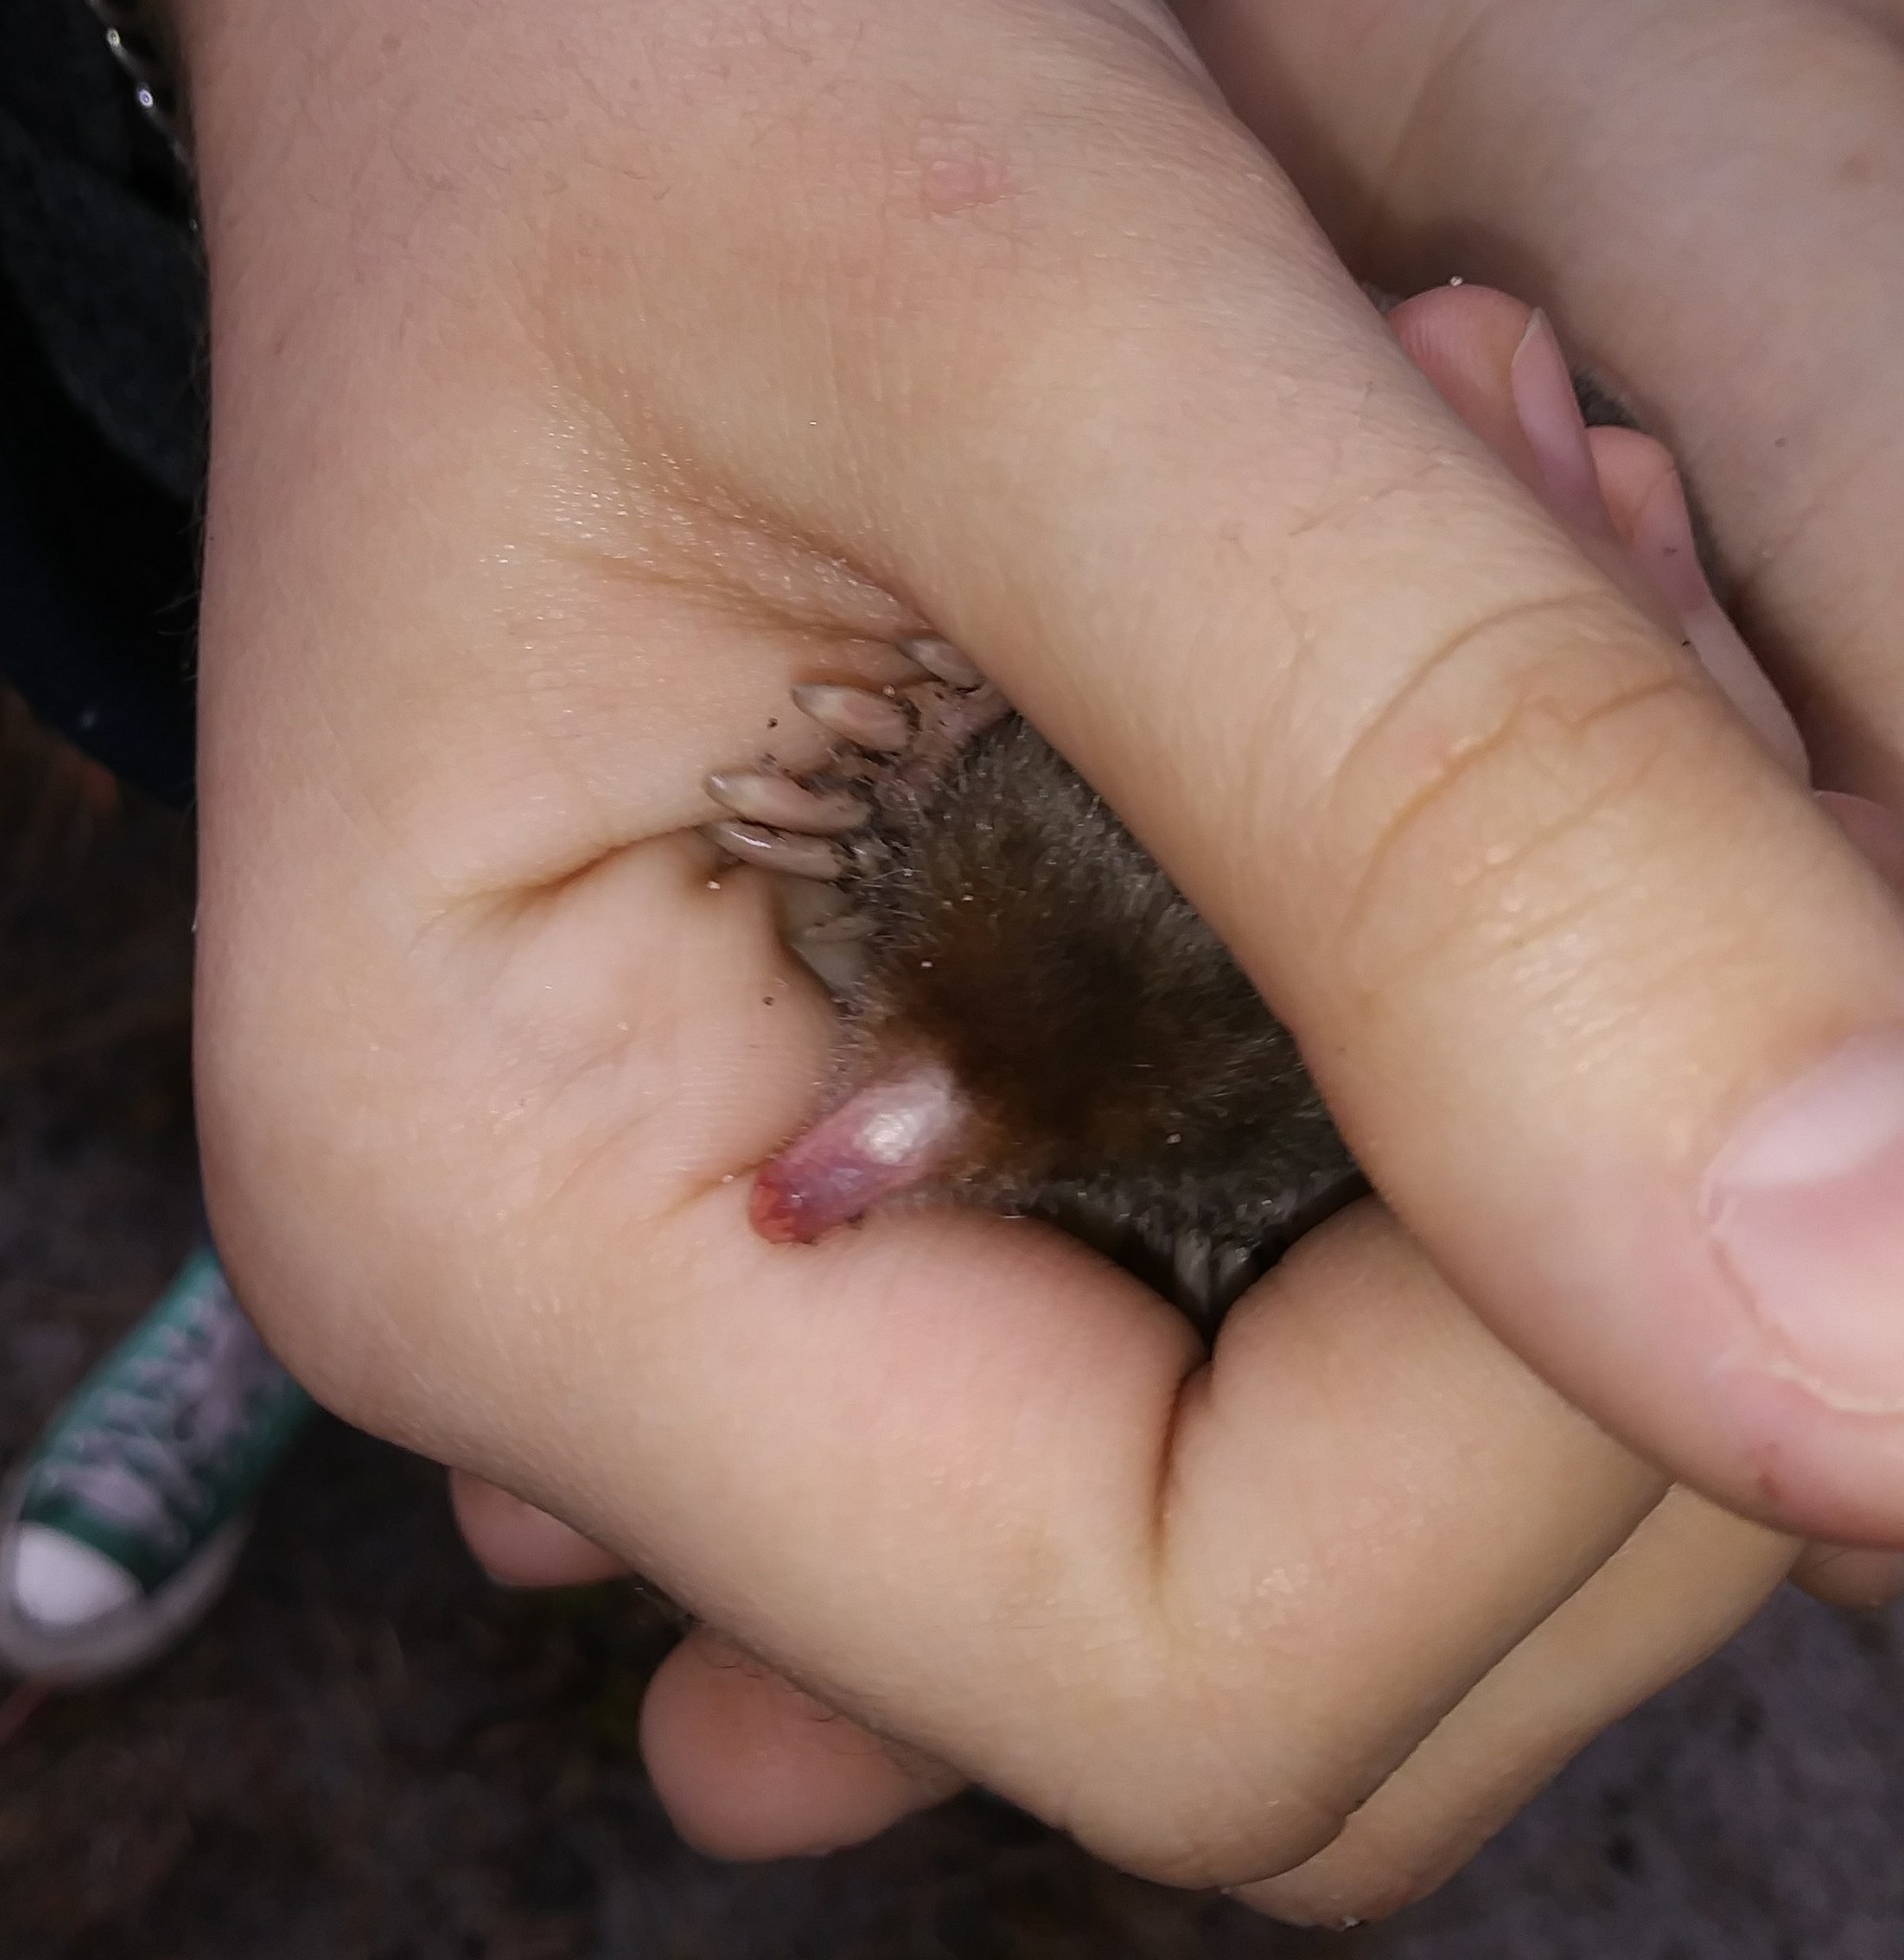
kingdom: Animalia
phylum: Chordata
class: Mammalia
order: Soricomorpha
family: Talpidae
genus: Scalopus
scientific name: Scalopus aquaticus
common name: Eastern mole
